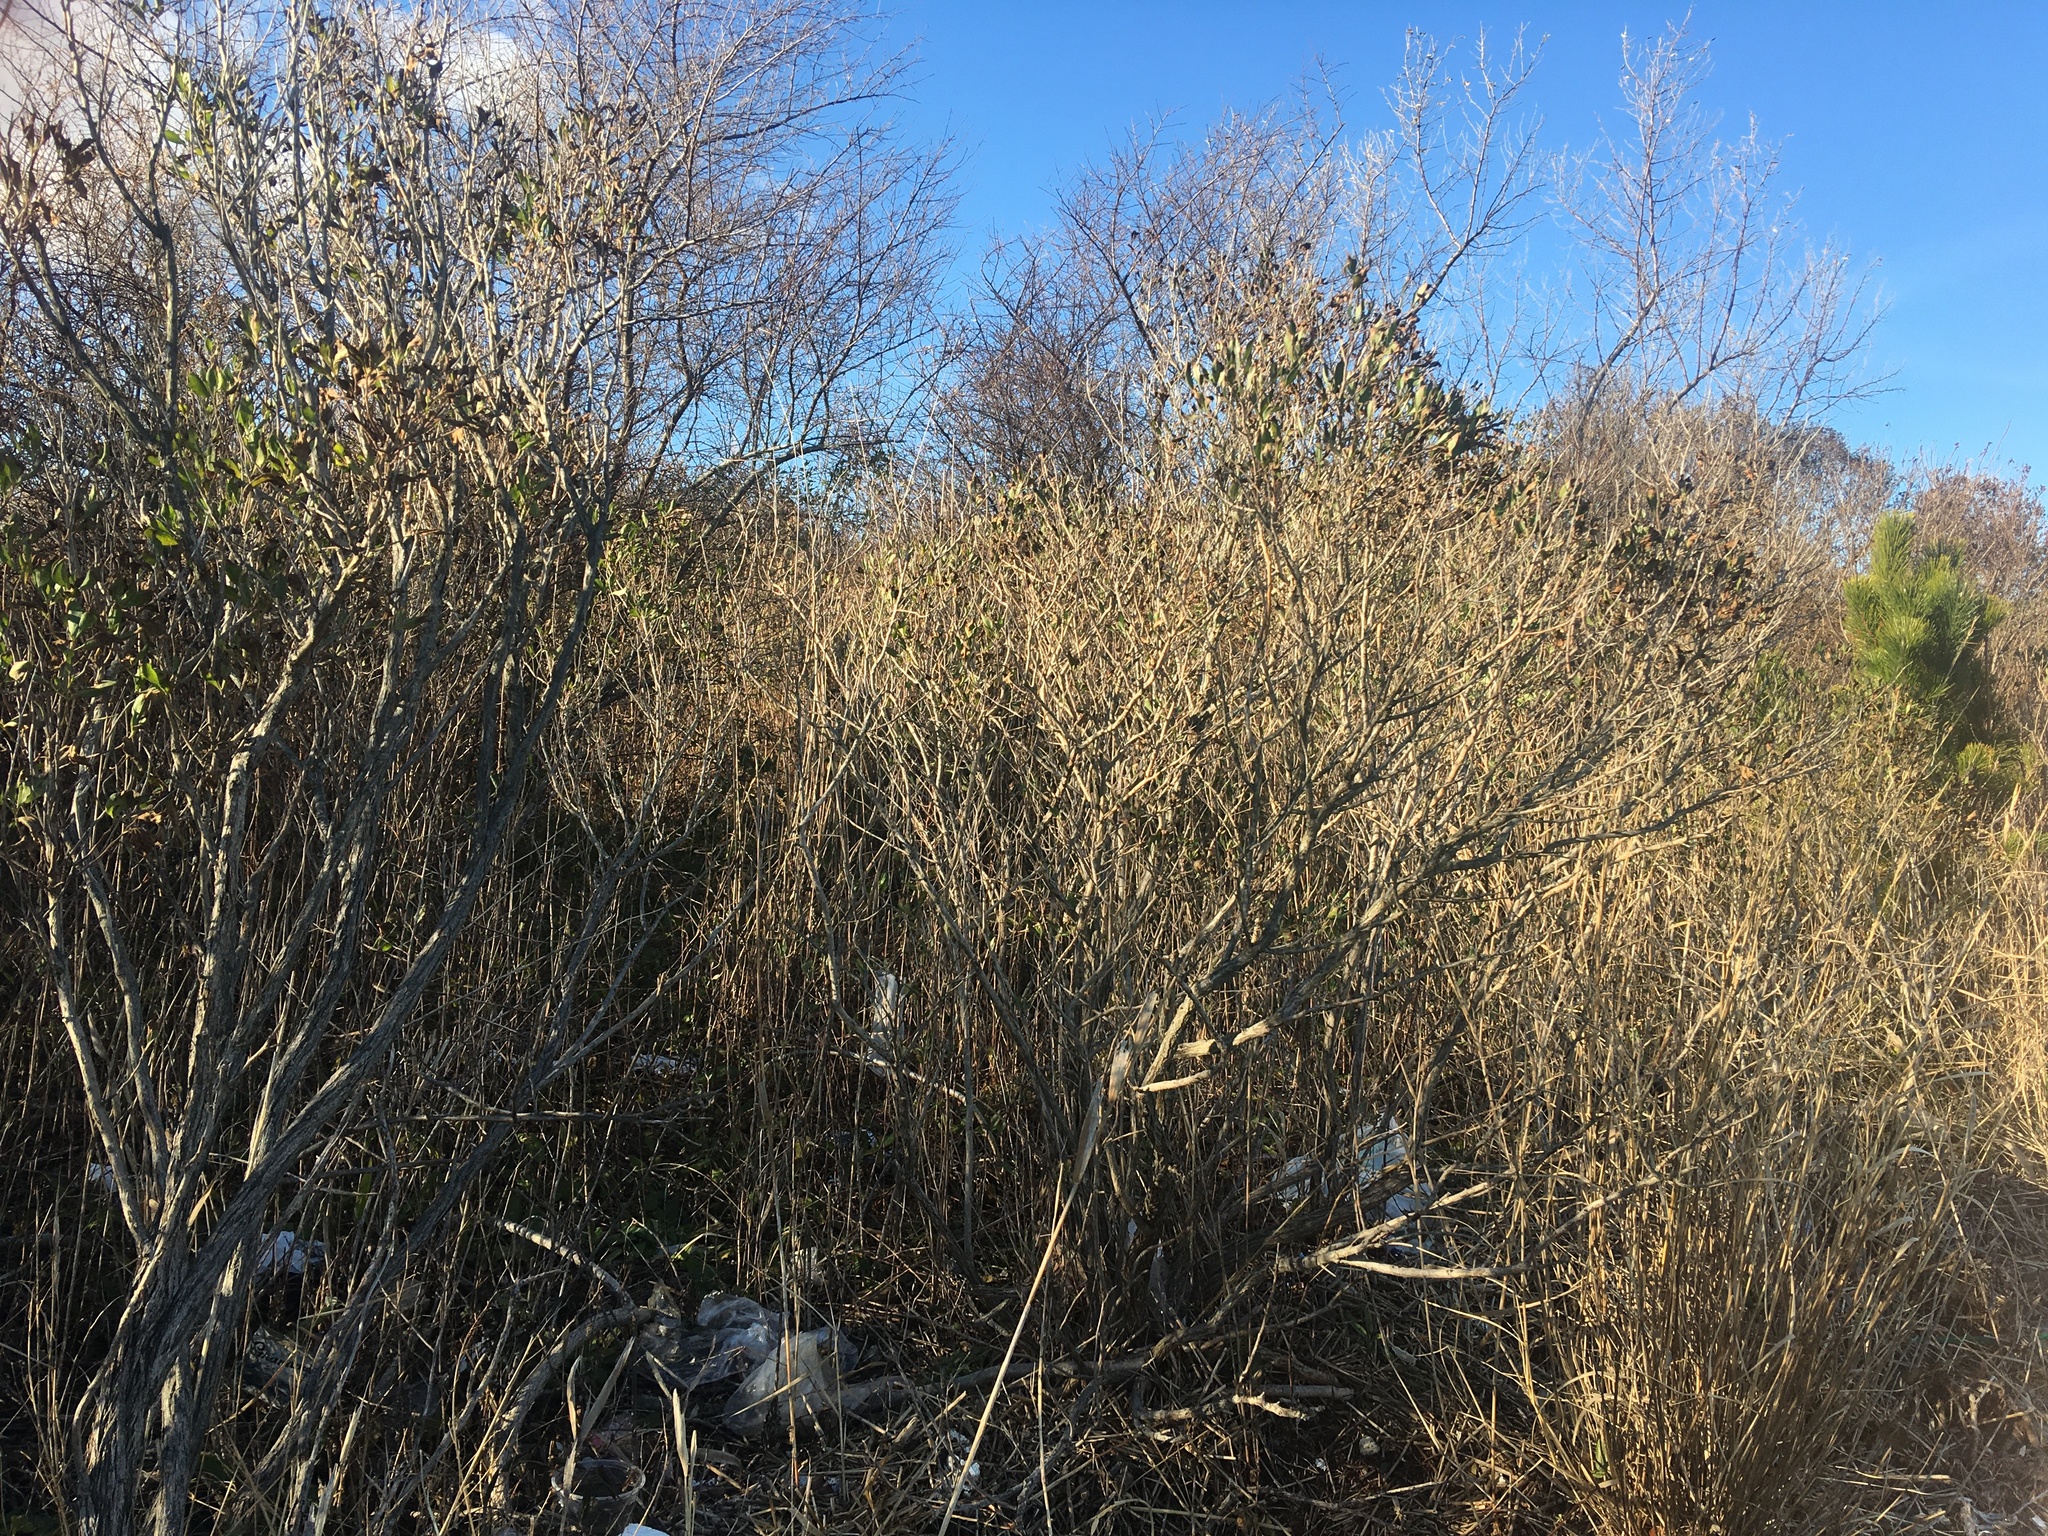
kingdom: Plantae
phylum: Tracheophyta
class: Magnoliopsida
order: Asterales
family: Asteraceae
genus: Baccharis
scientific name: Baccharis halimifolia
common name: Eastern baccharis
